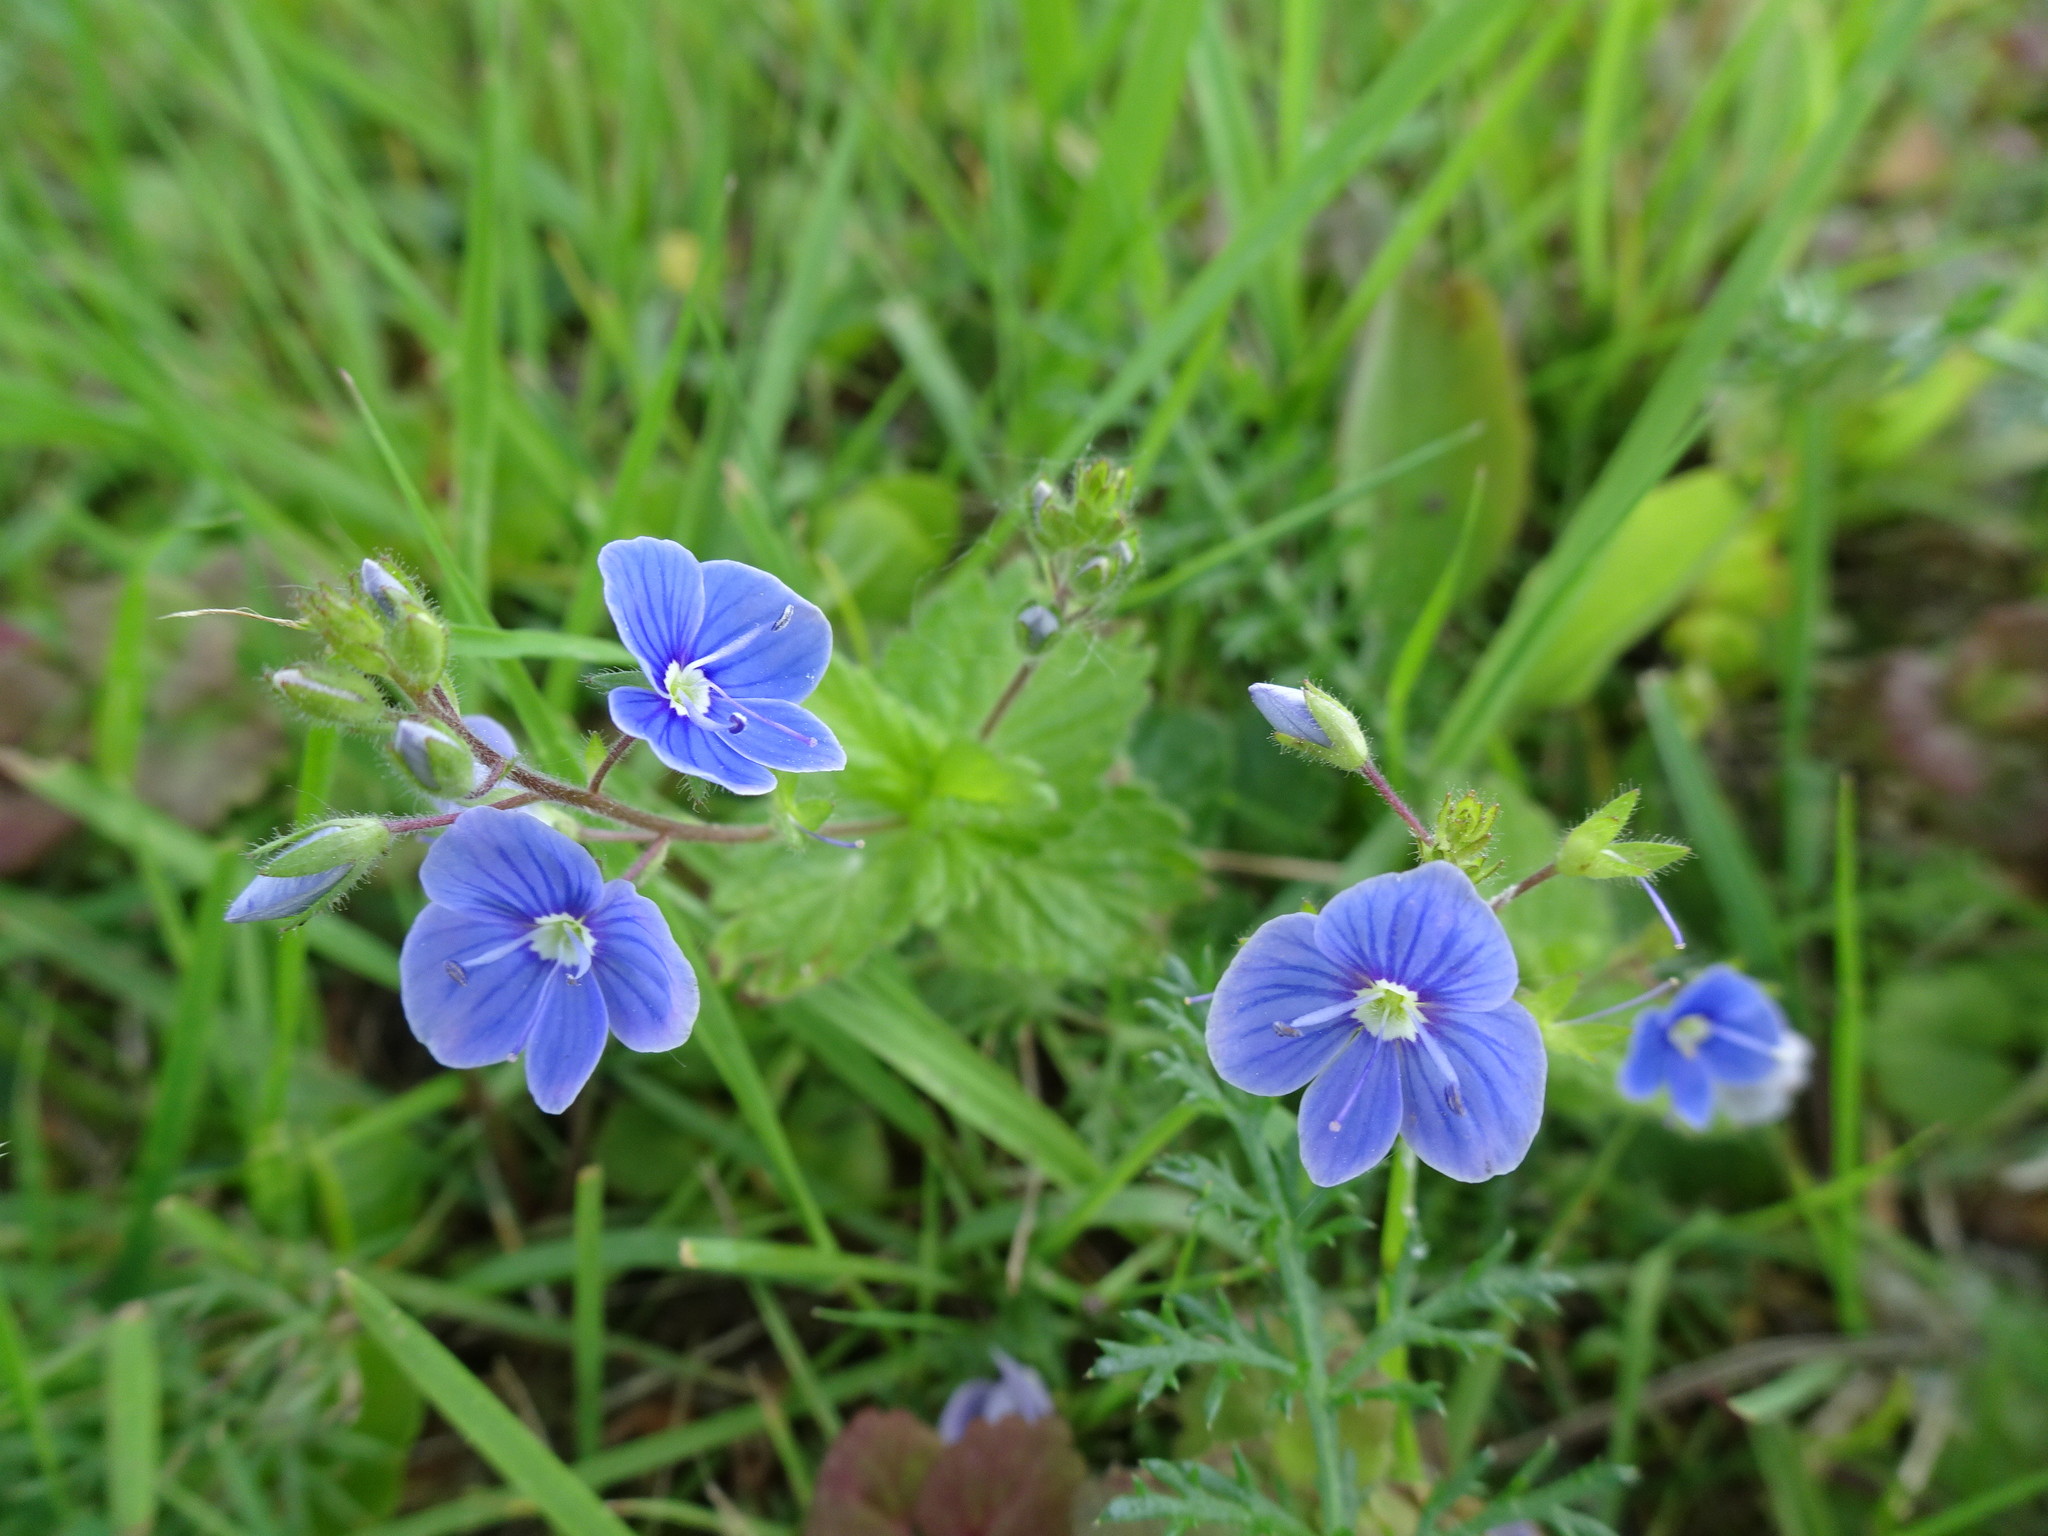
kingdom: Plantae
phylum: Tracheophyta
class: Magnoliopsida
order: Lamiales
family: Plantaginaceae
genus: Veronica
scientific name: Veronica chamaedrys
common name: Germander speedwell
